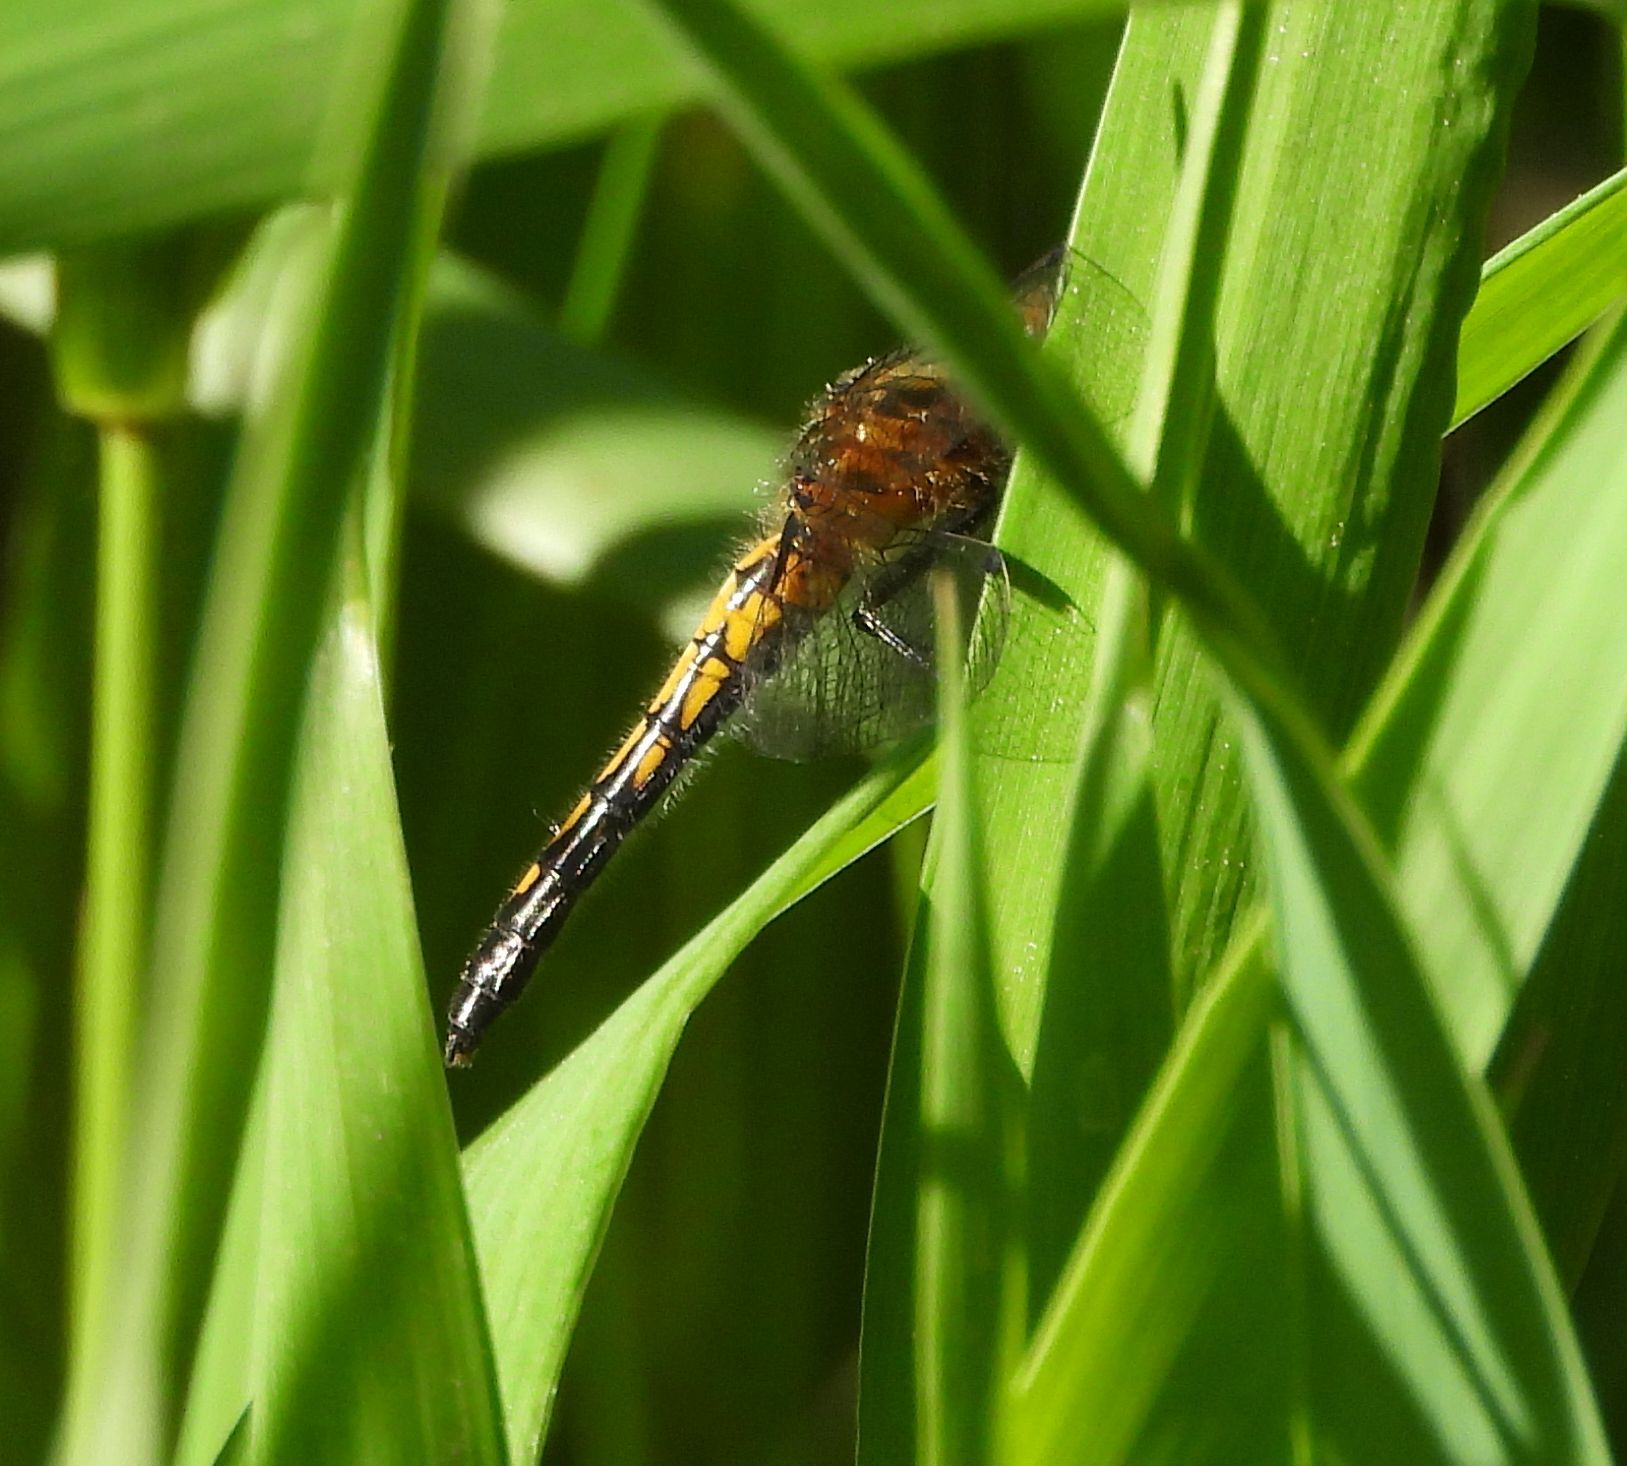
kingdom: Animalia
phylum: Arthropoda
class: Insecta
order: Odonata
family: Libellulidae
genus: Leucorrhinia
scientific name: Leucorrhinia intacta
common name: Dot-tailed whiteface
